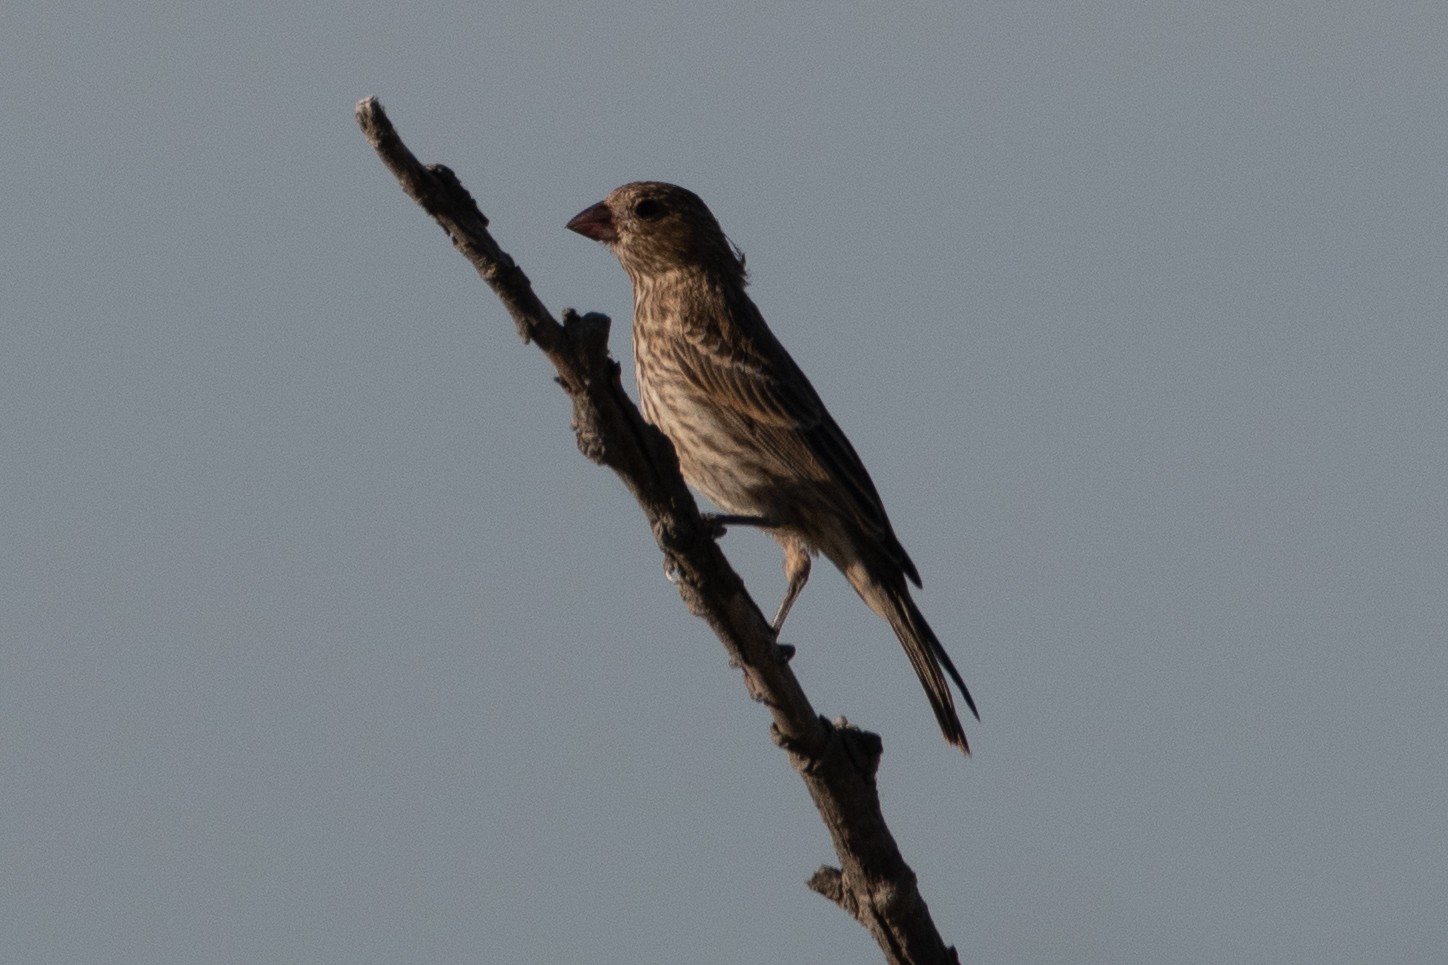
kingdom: Animalia
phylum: Chordata
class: Aves
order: Passeriformes
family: Fringillidae
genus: Haemorhous
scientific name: Haemorhous mexicanus
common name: House finch
